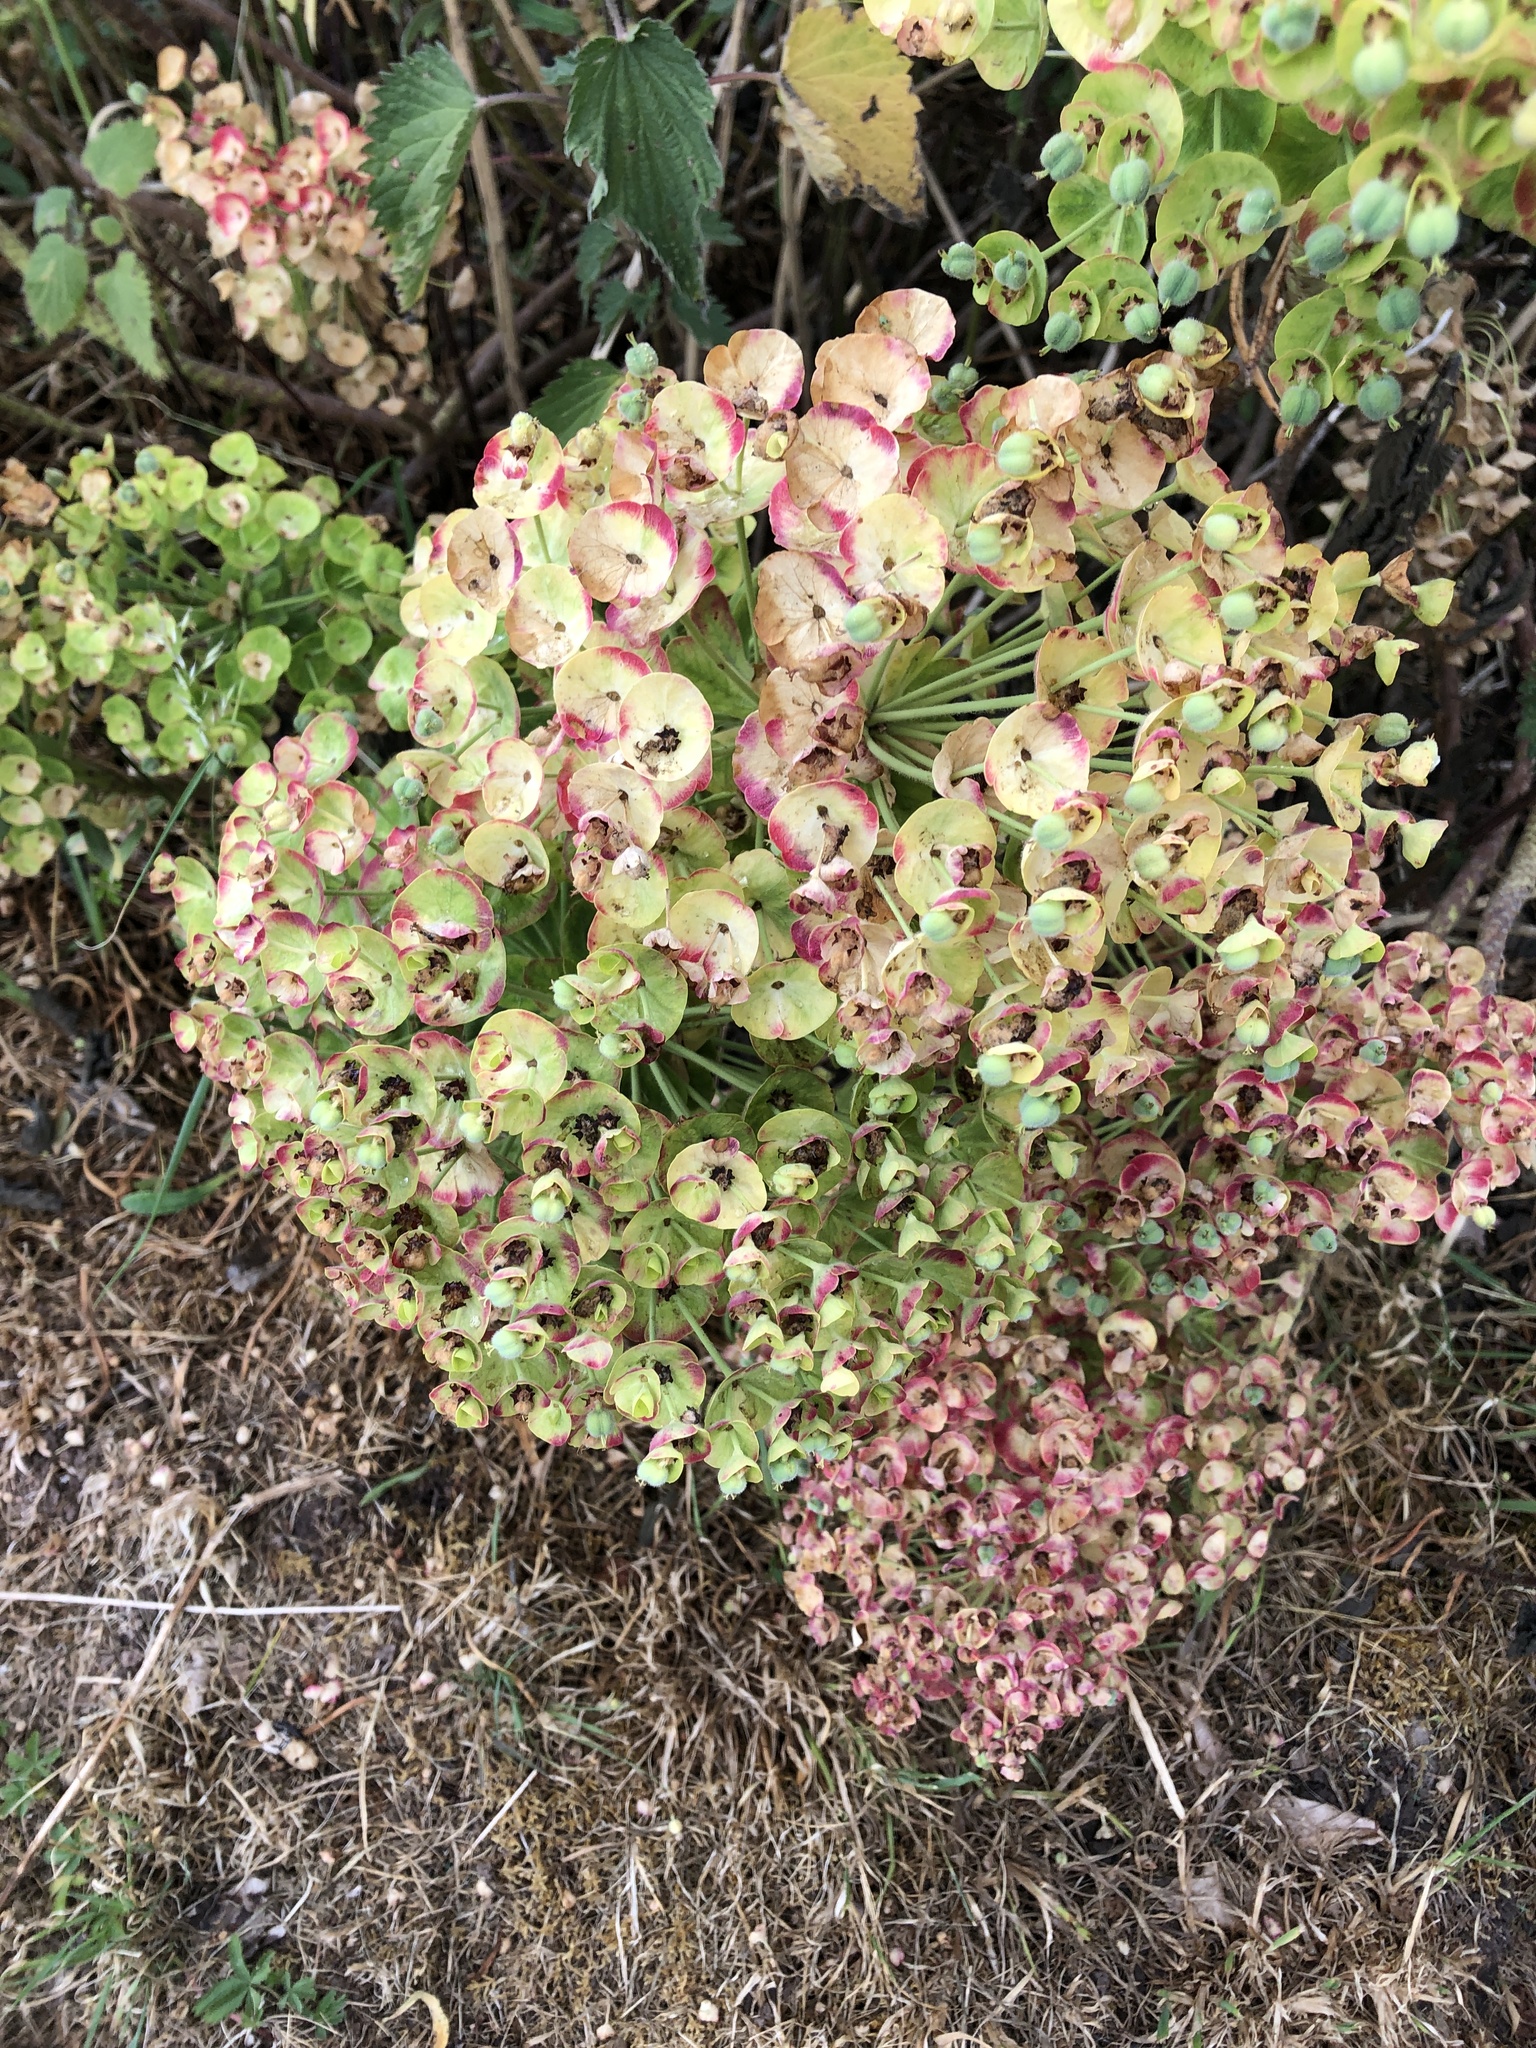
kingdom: Plantae
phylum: Tracheophyta
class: Magnoliopsida
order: Malpighiales
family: Euphorbiaceae
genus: Euphorbia
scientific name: Euphorbia characias
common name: Mediterranean spurge
